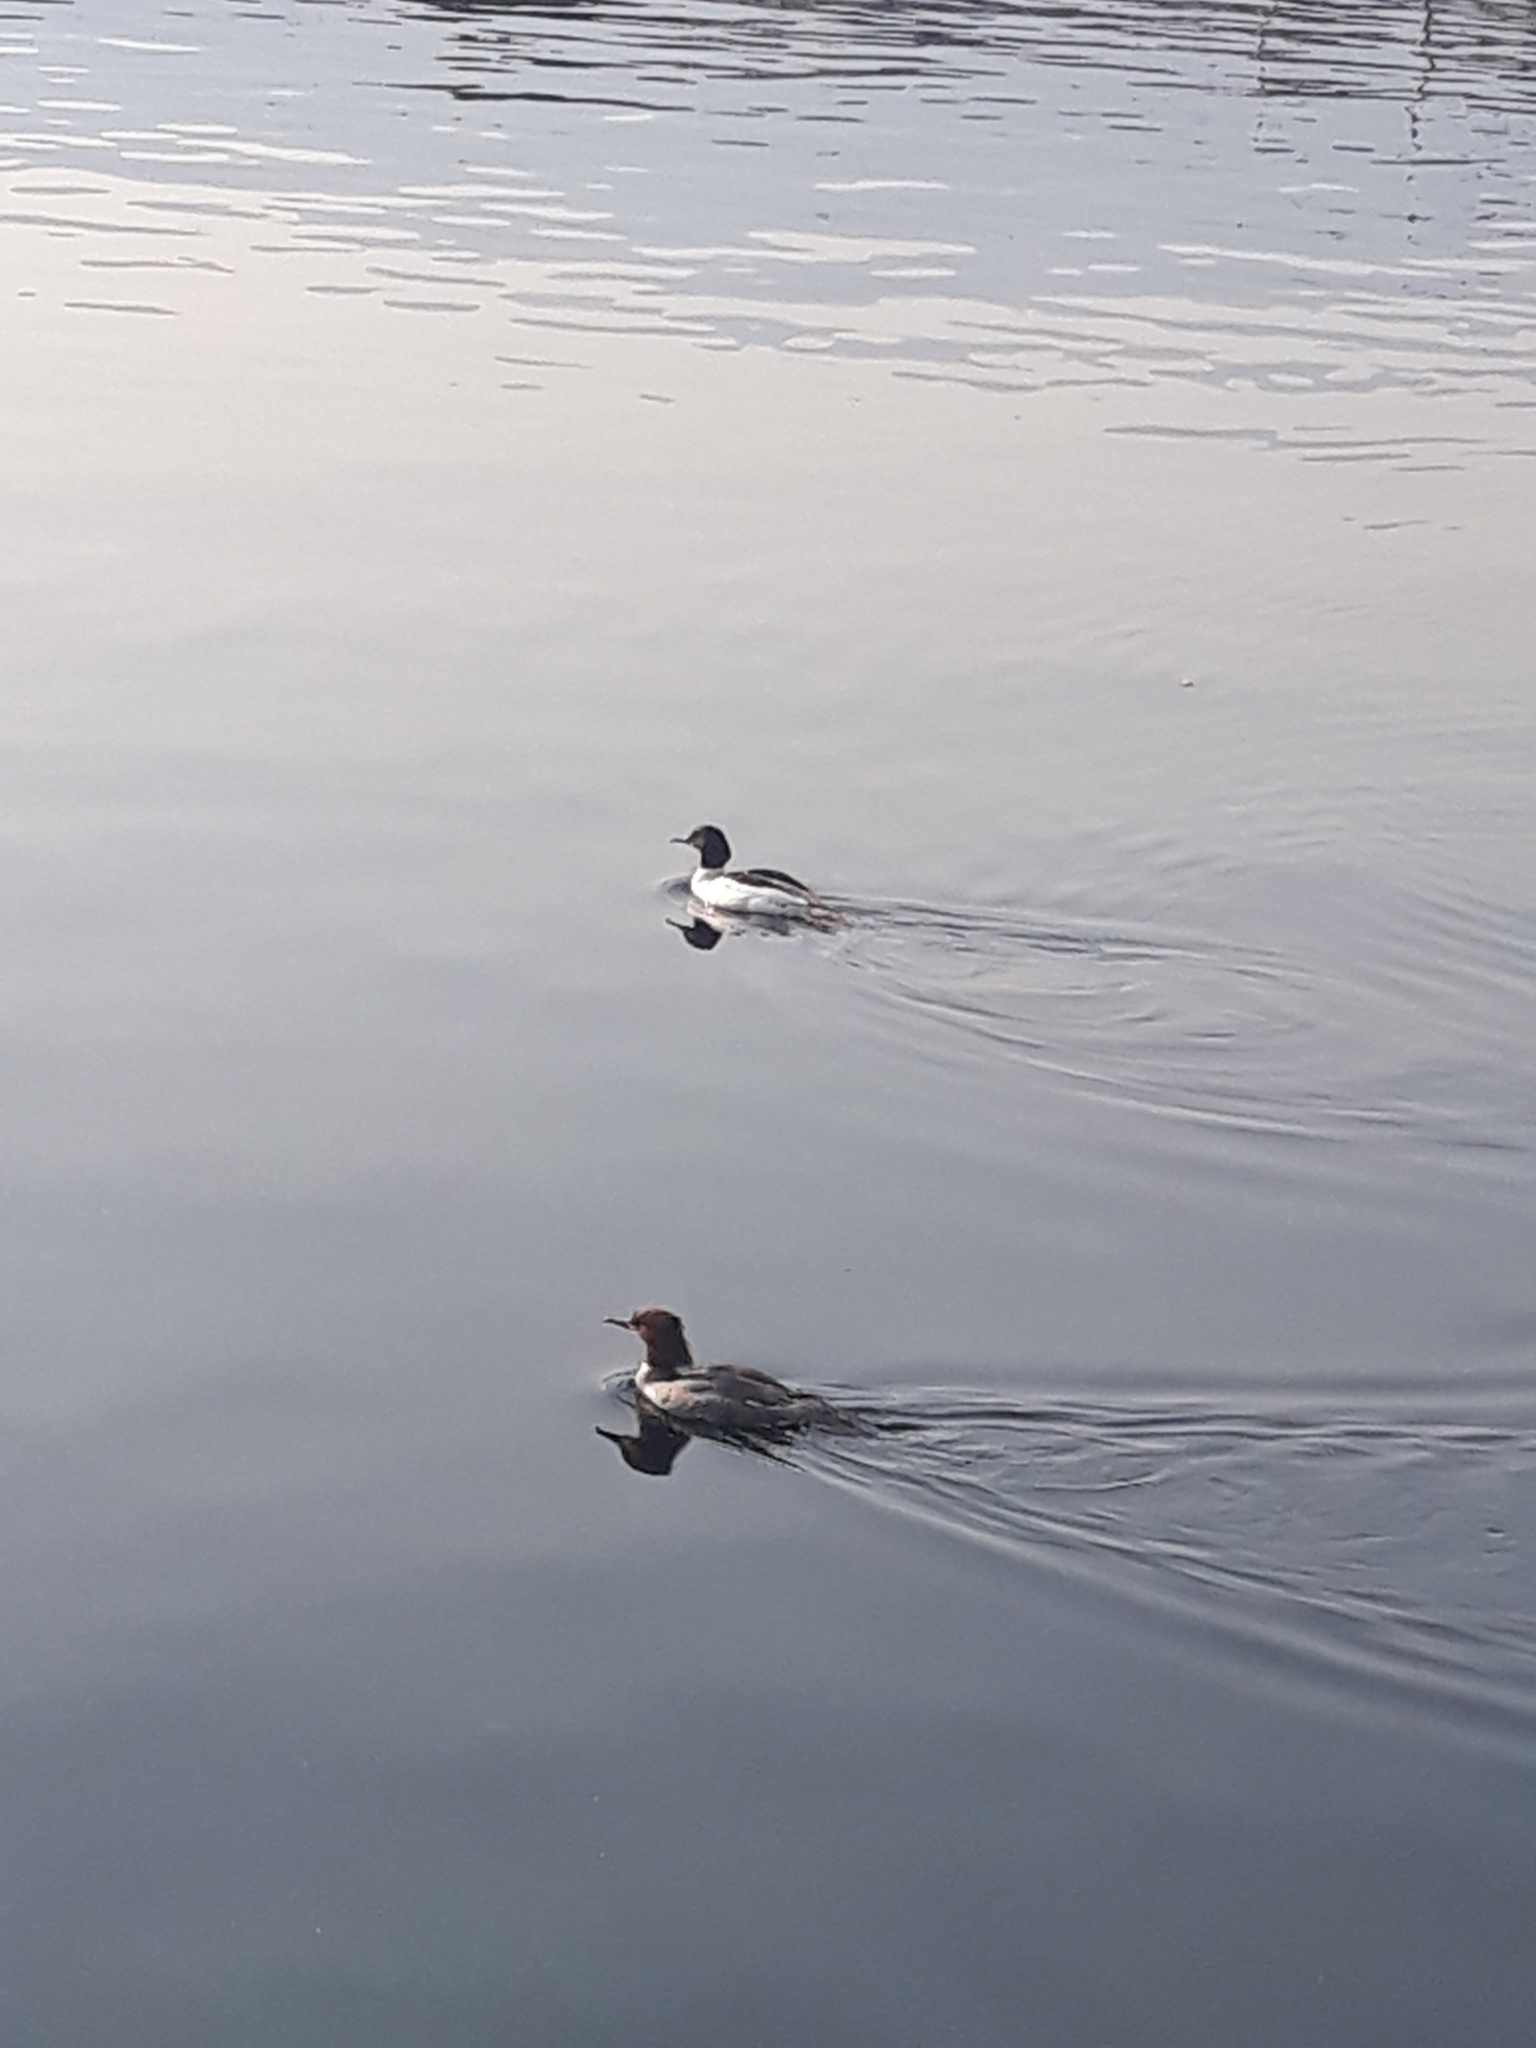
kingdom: Animalia
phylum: Chordata
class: Aves
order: Anseriformes
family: Anatidae
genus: Mergus
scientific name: Mergus merganser
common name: Common merganser
